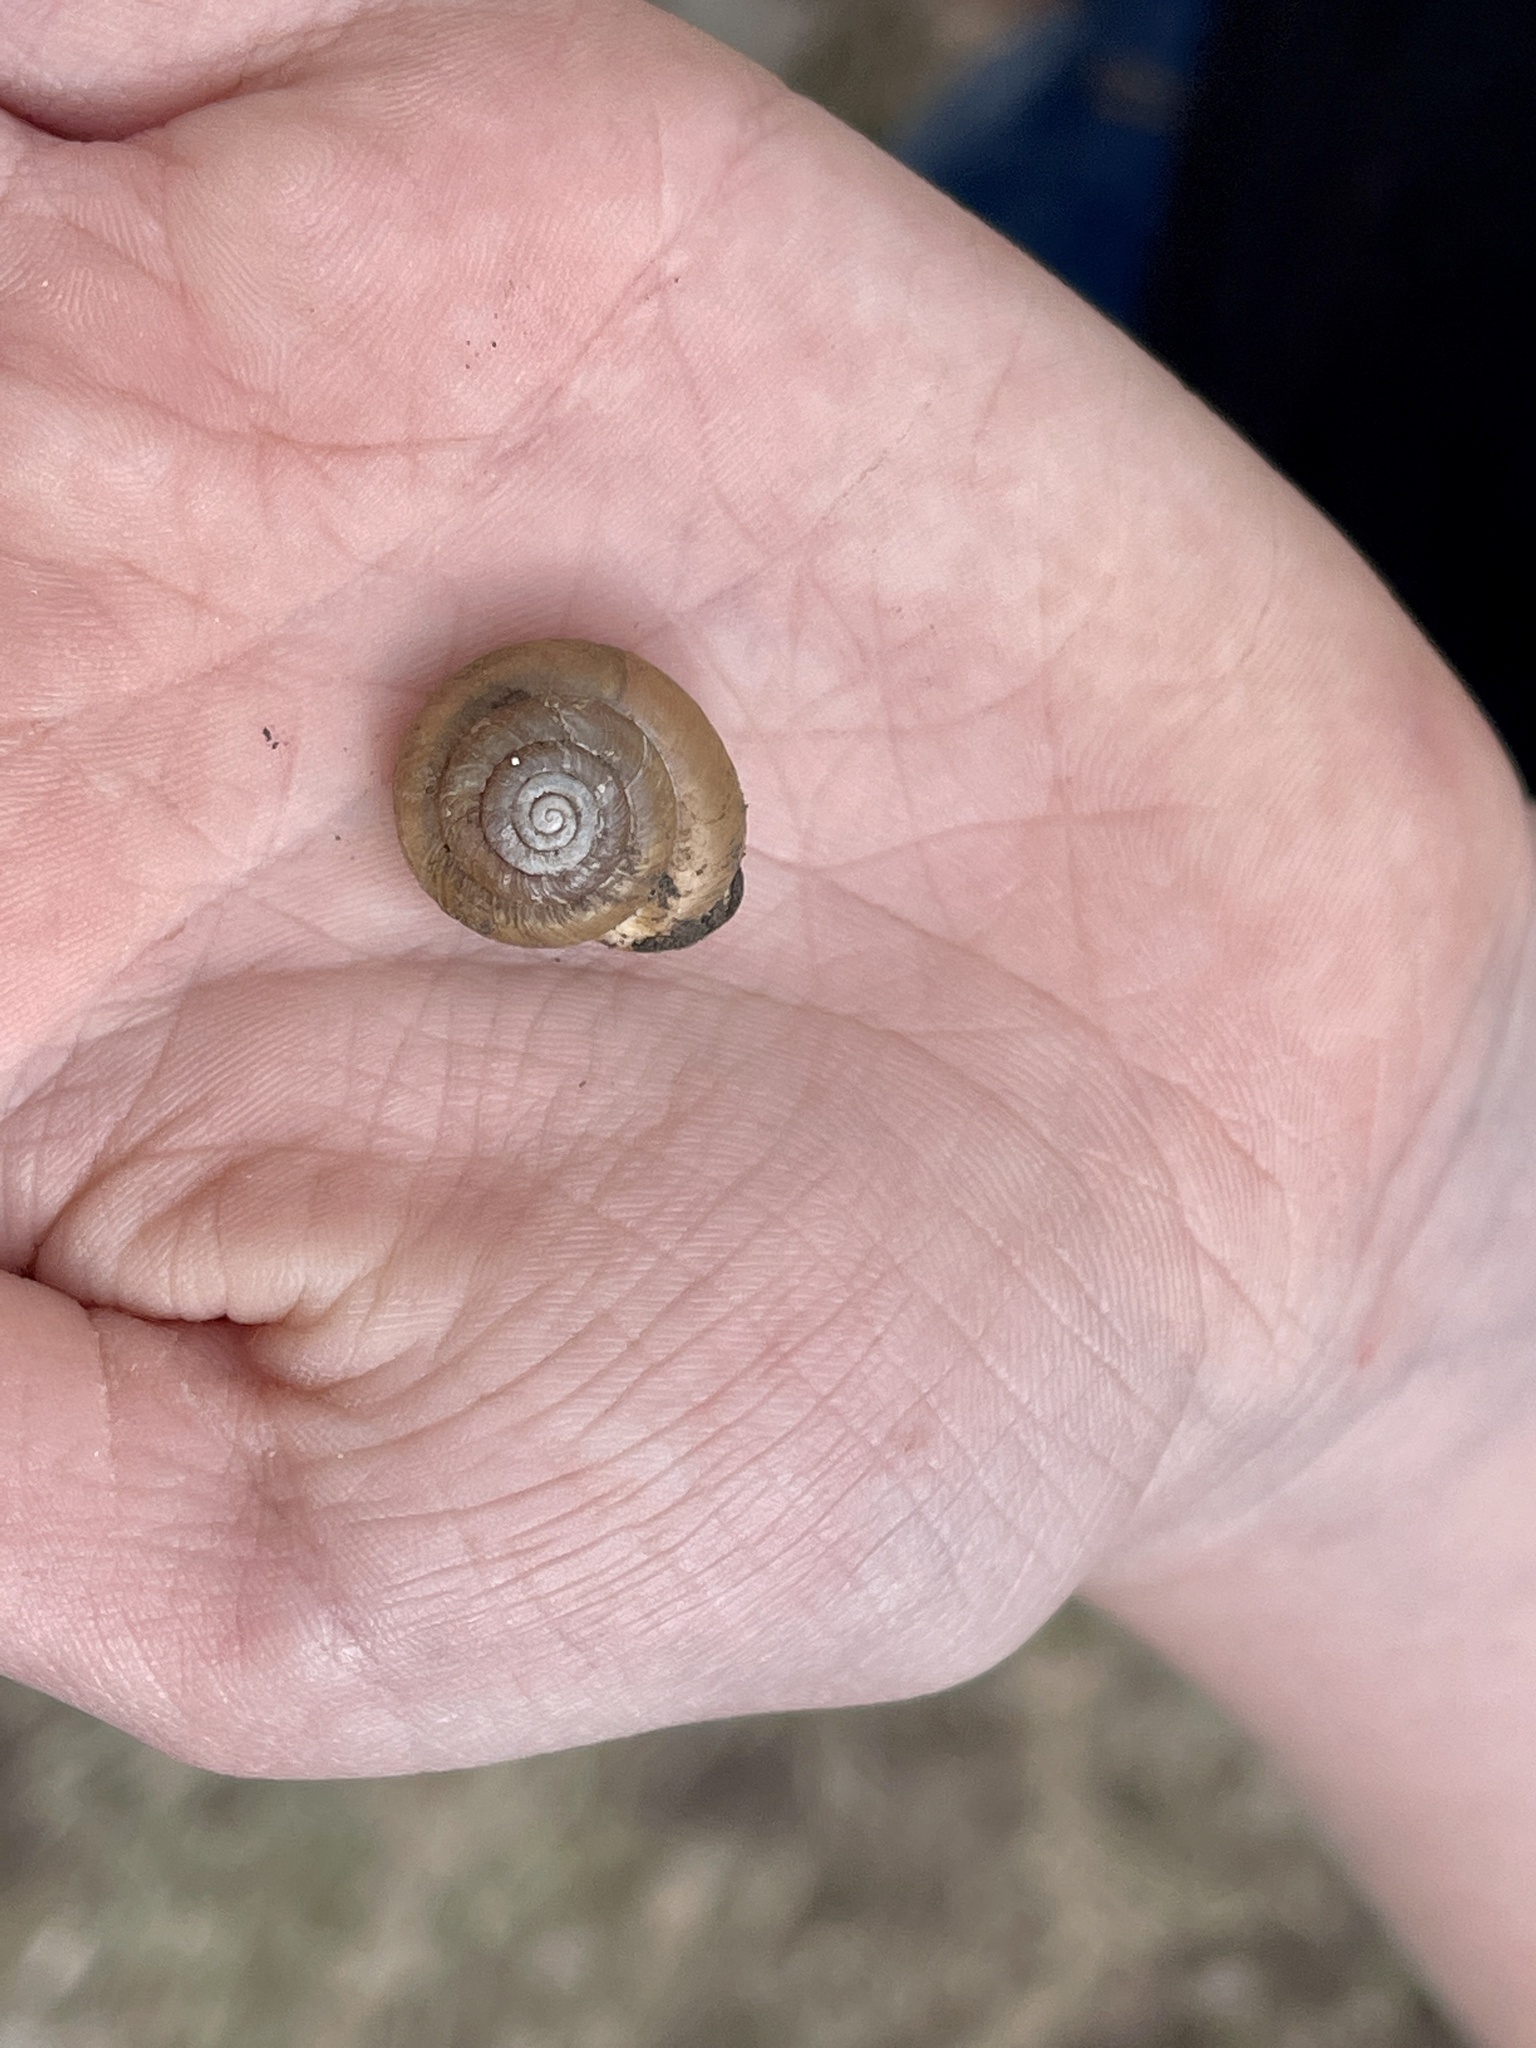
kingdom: Animalia
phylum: Mollusca
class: Gastropoda
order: Stylommatophora
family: Polygyridae
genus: Ashmunella
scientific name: Ashmunella rhyssa
